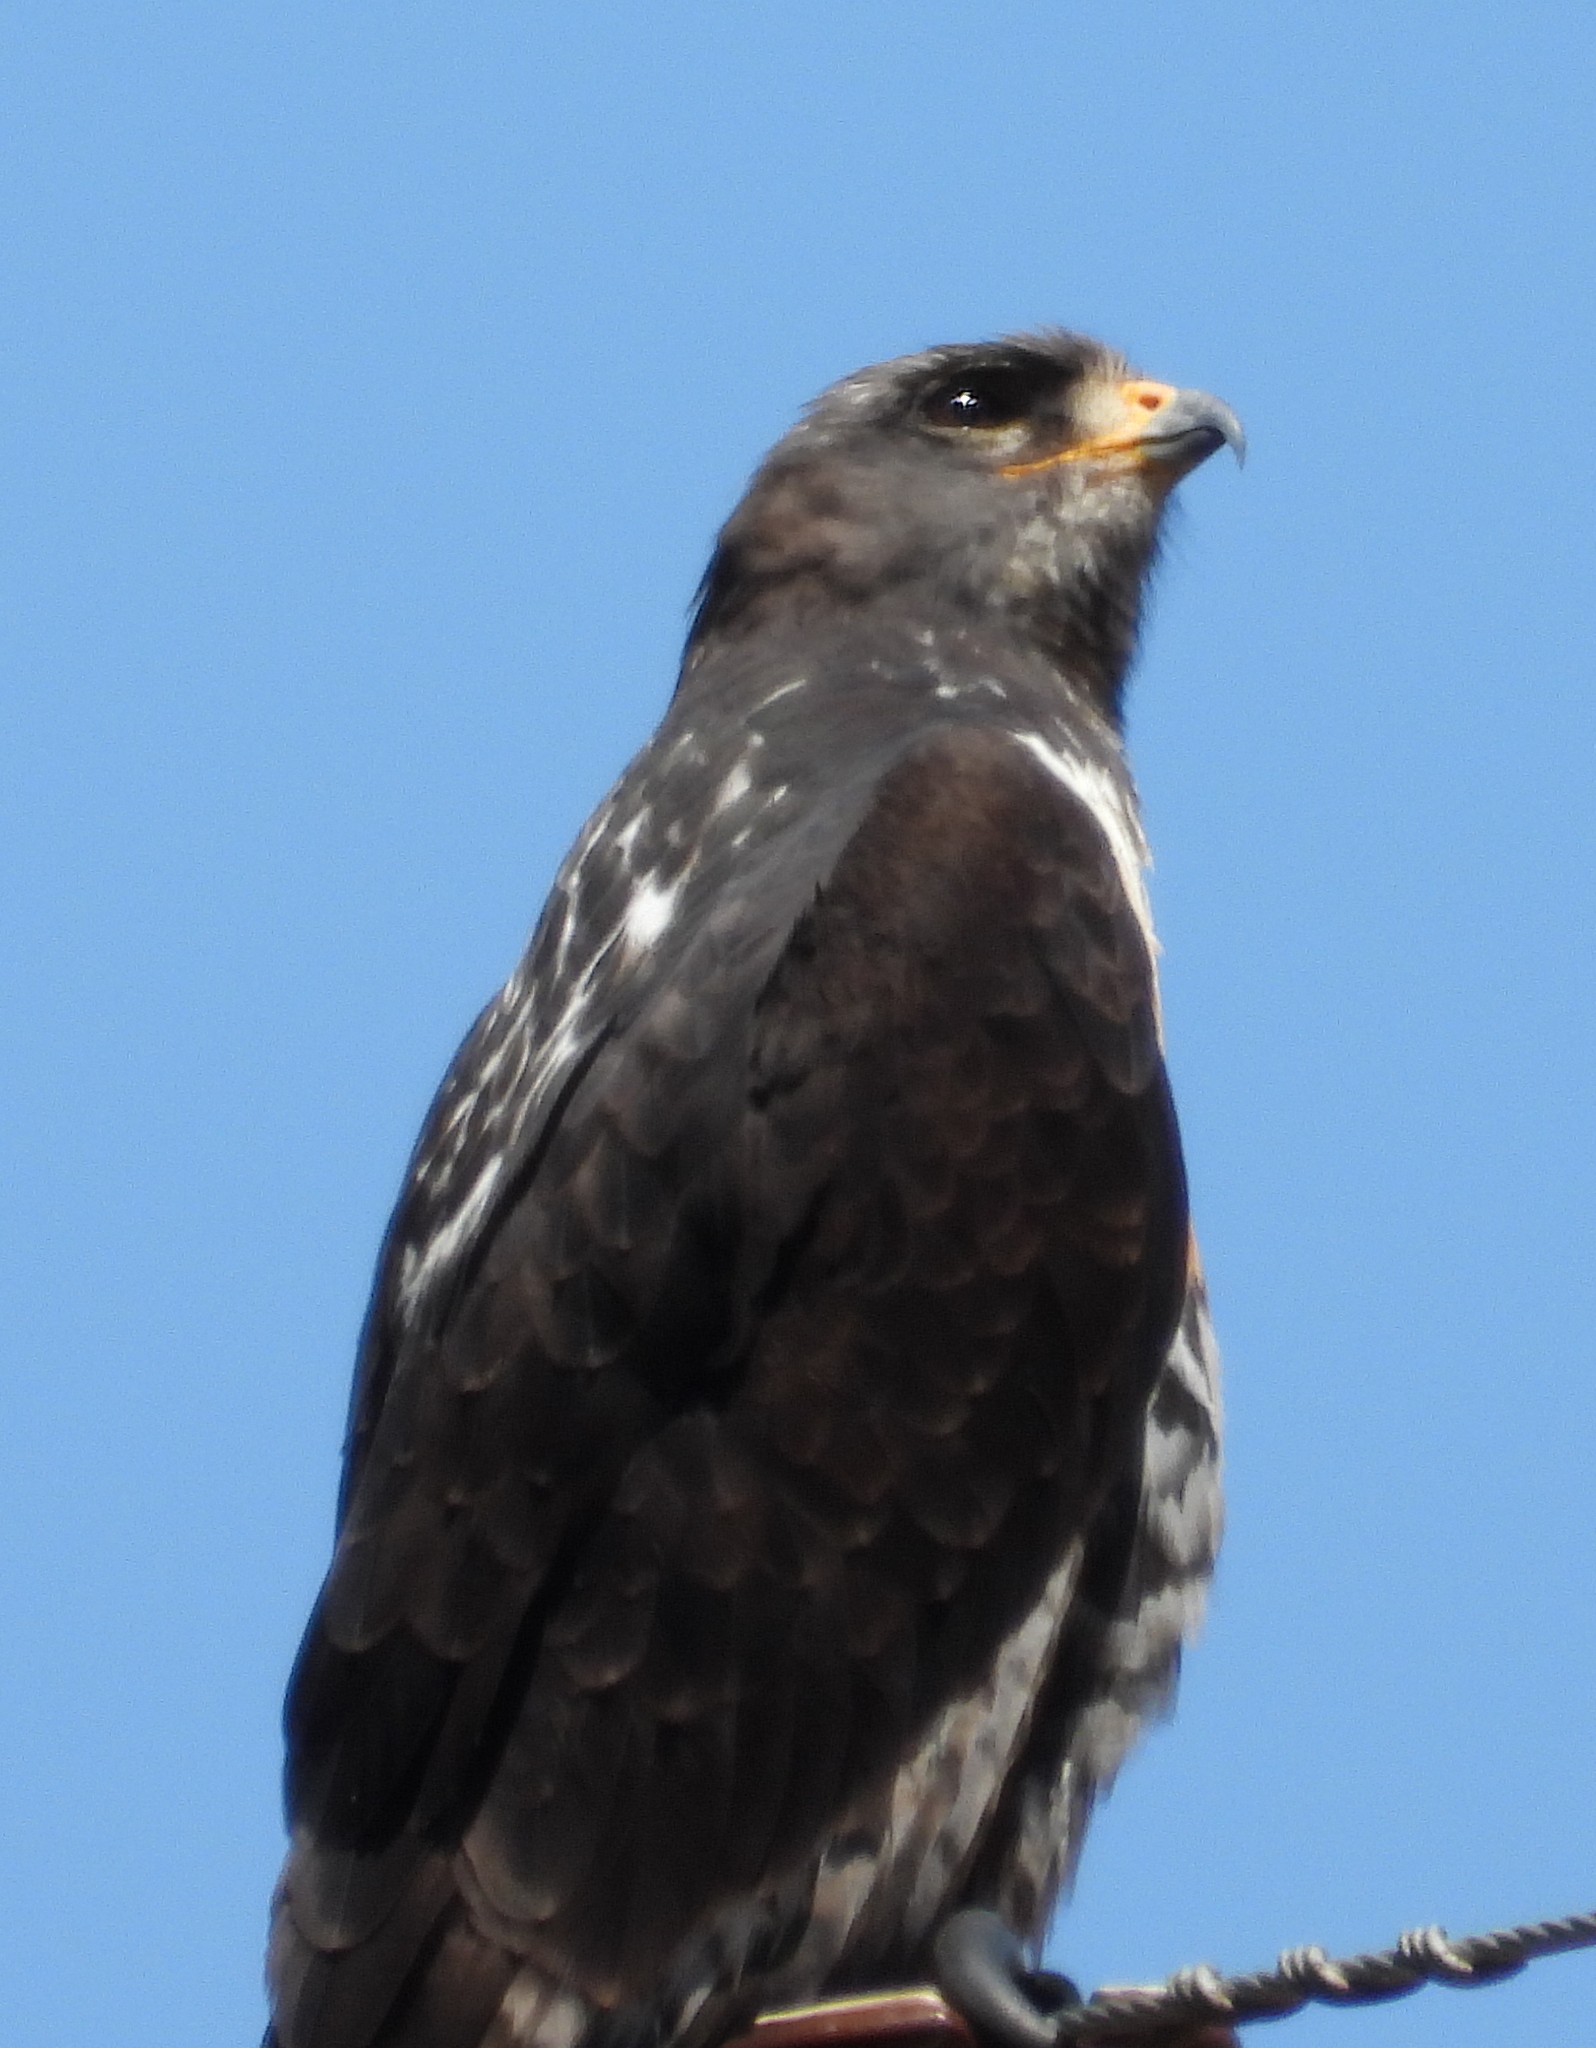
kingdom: Animalia
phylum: Chordata
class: Aves
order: Accipitriformes
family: Accipitridae
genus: Buteo
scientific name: Buteo rufofuscus
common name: Jackal buzzard
